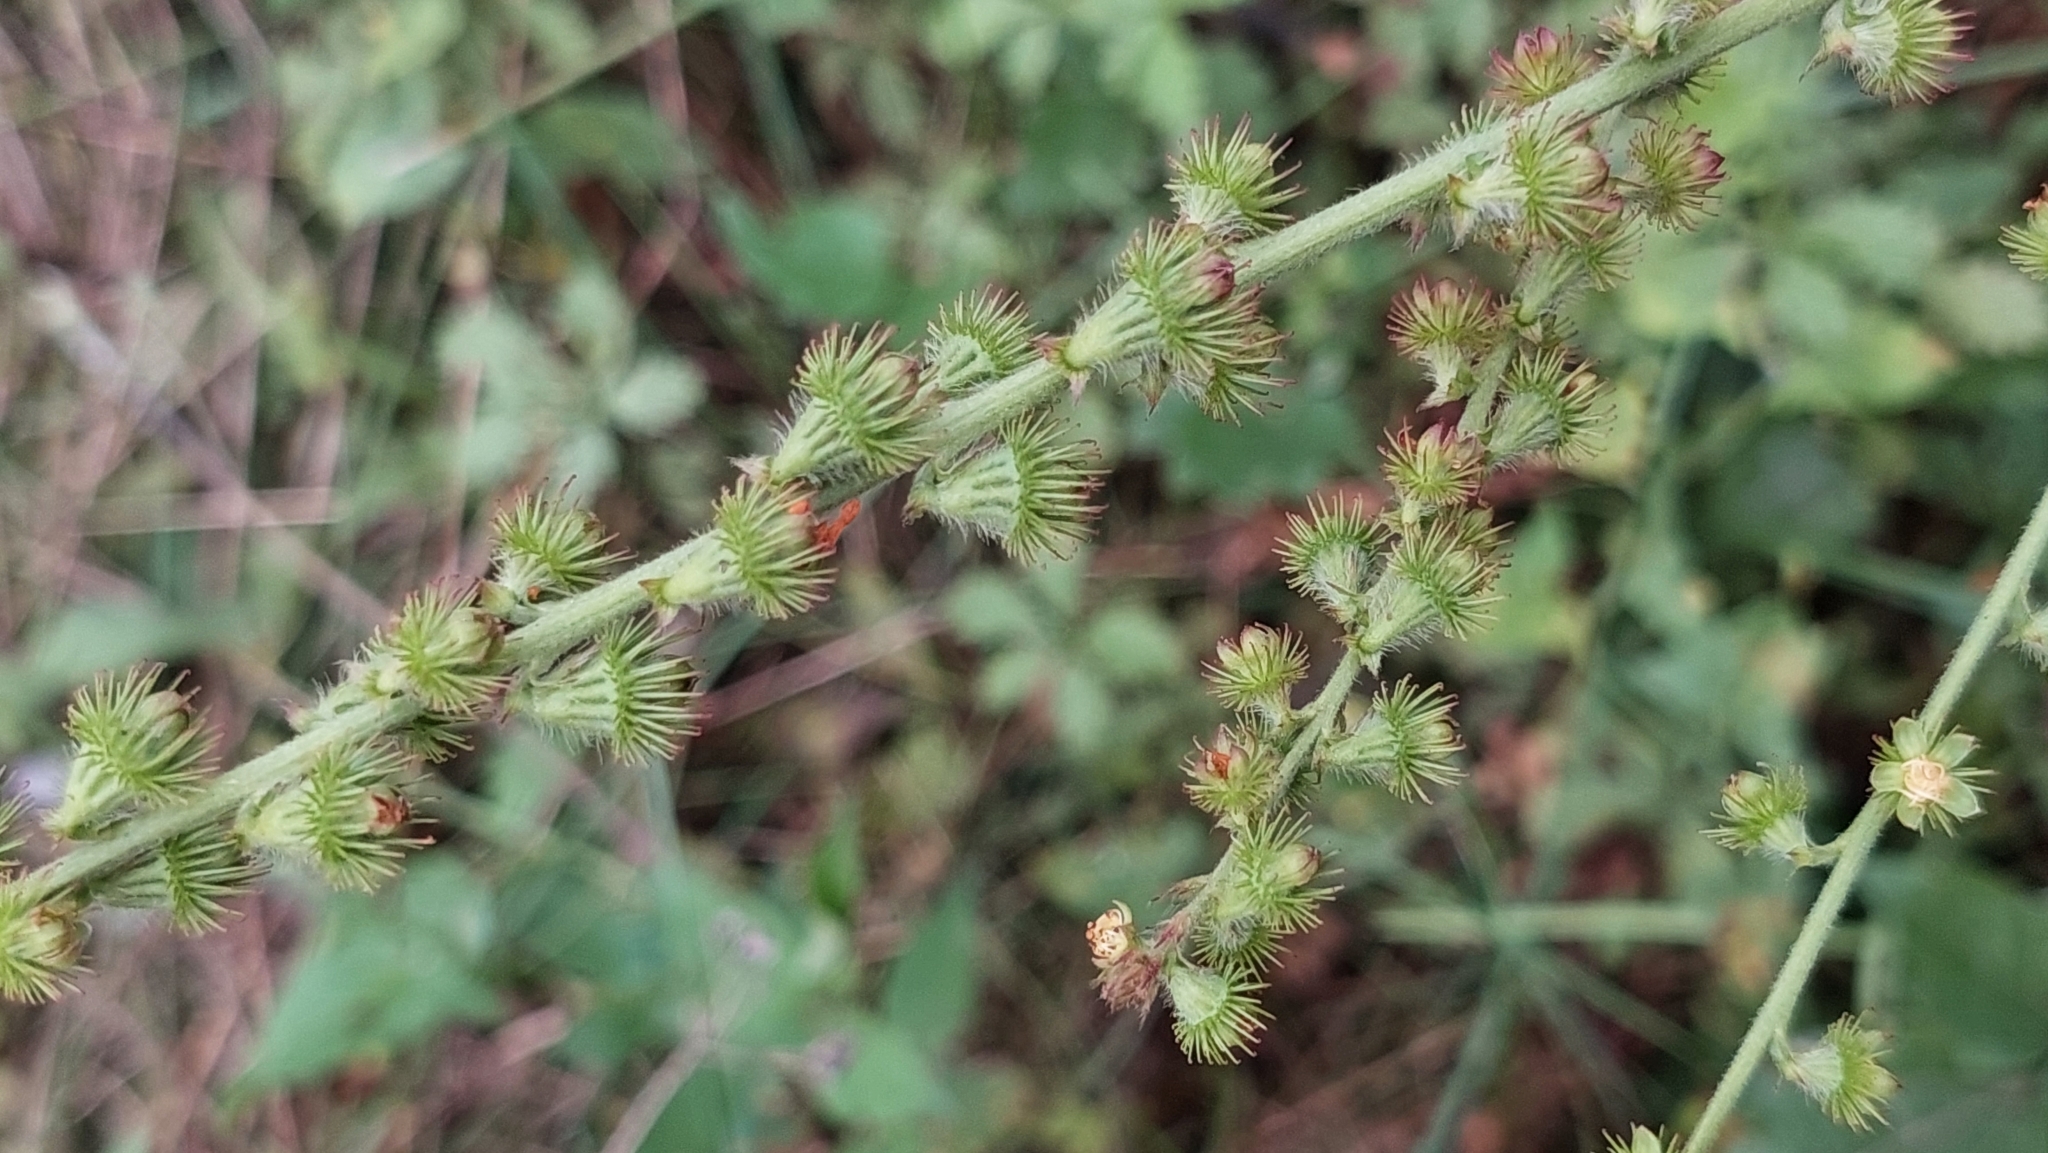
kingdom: Plantae
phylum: Tracheophyta
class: Magnoliopsida
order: Rosales
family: Rosaceae
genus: Agrimonia
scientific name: Agrimonia eupatoria
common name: Agrimony
